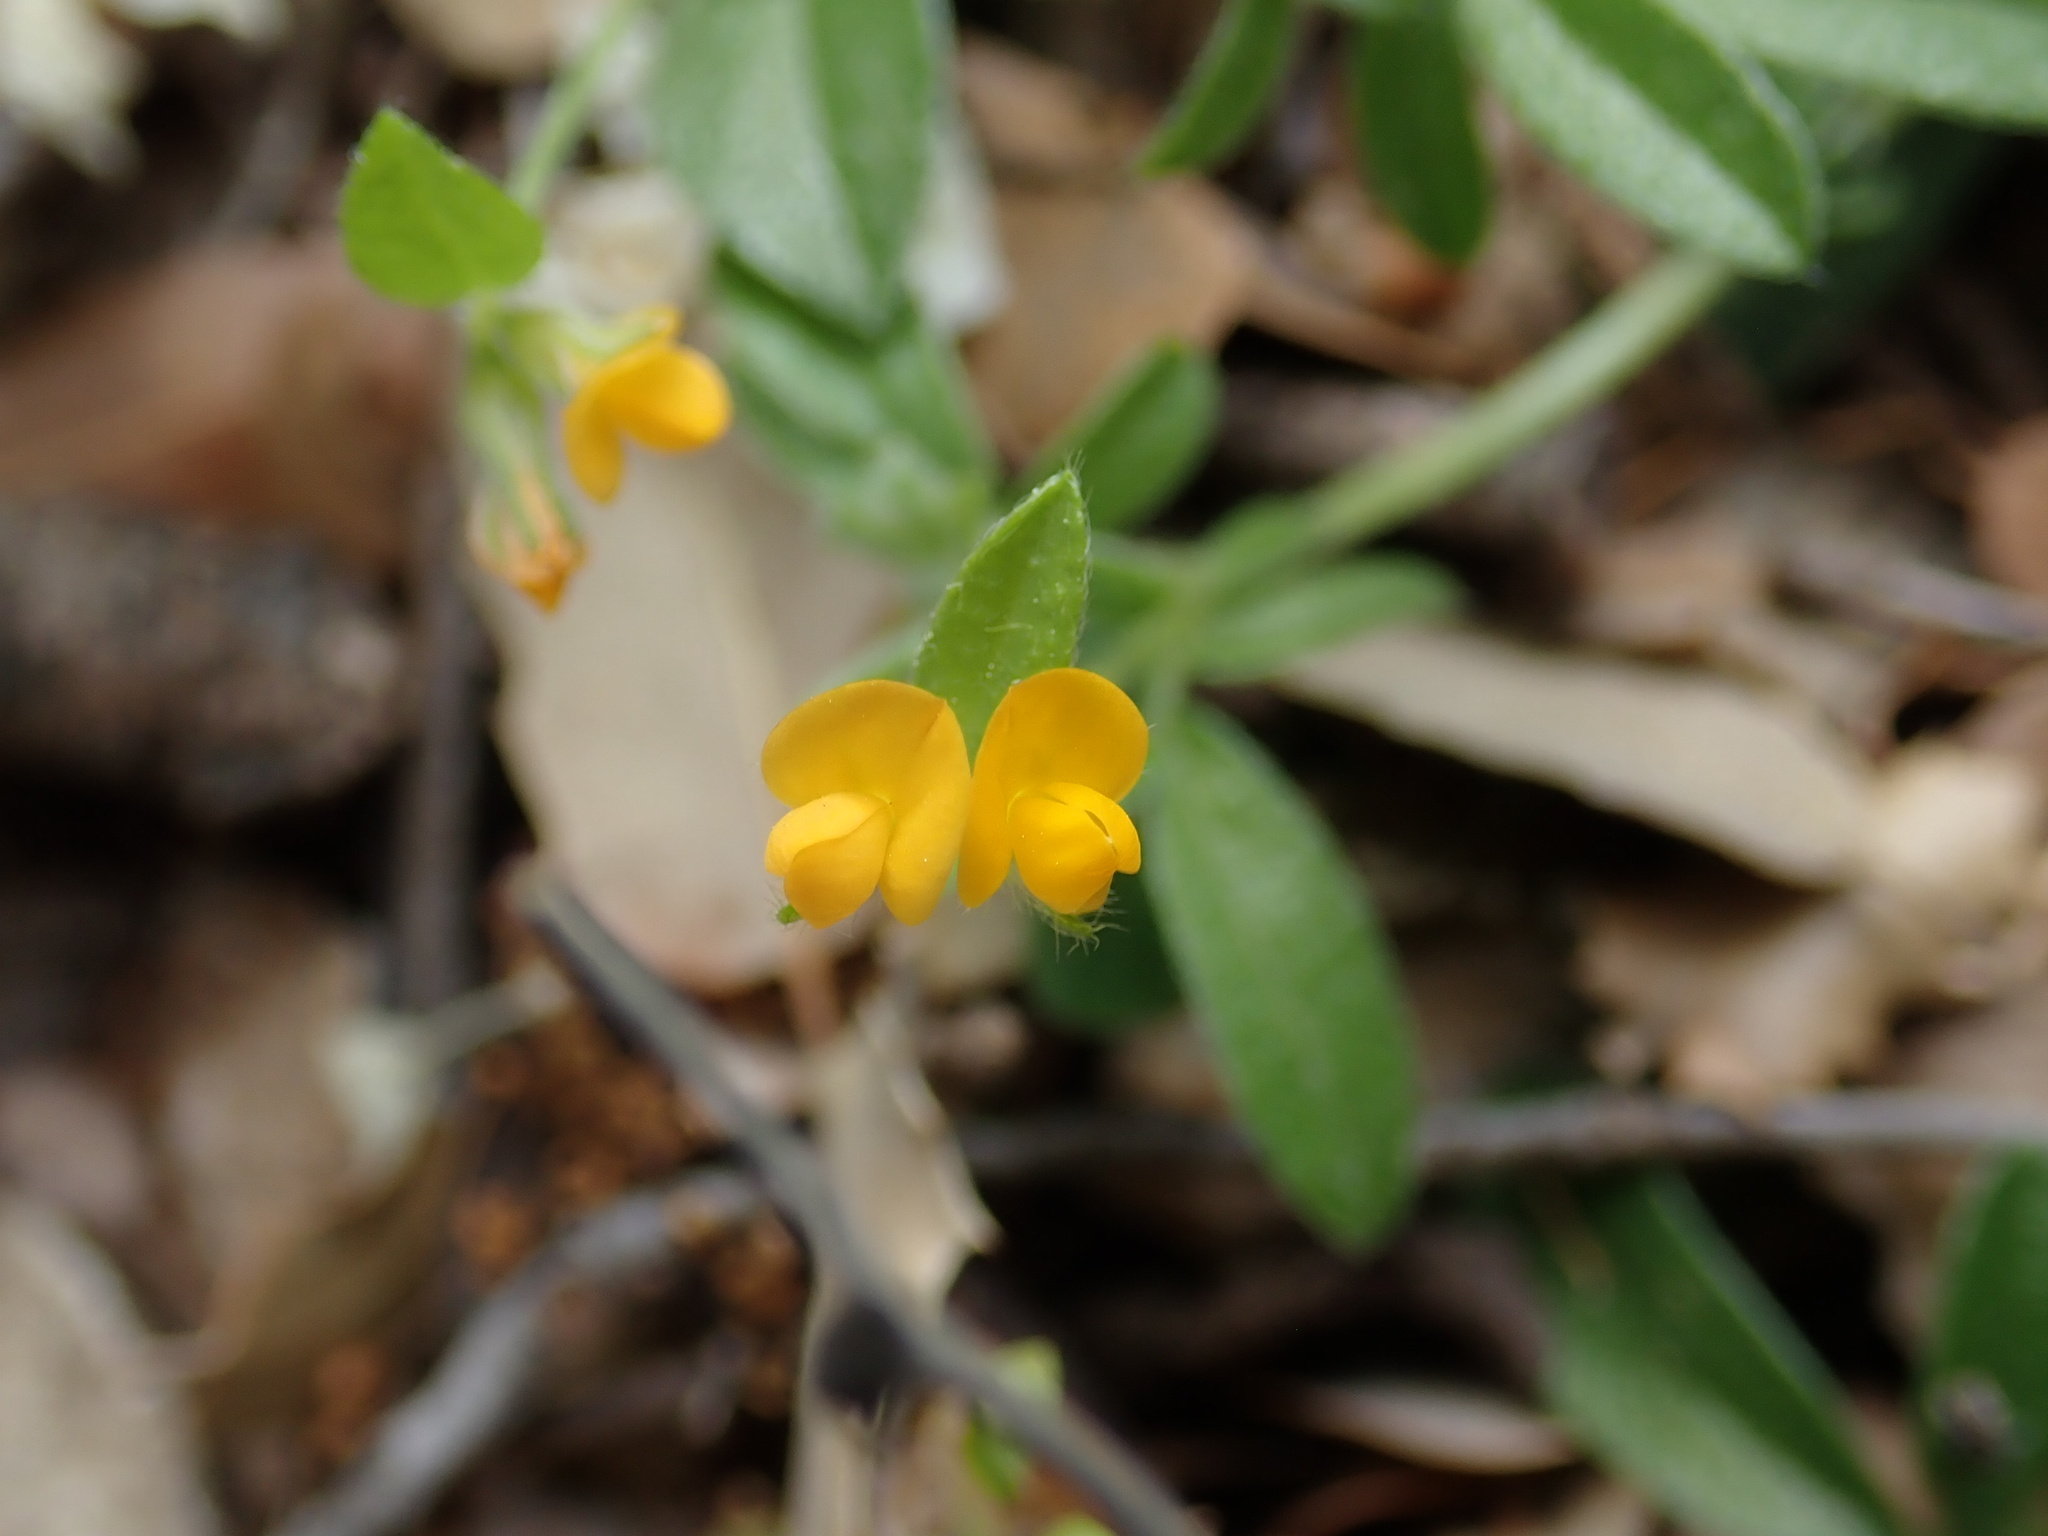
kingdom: Plantae
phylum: Tracheophyta
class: Magnoliopsida
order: Fabales
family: Fabaceae
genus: Anthyllis
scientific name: Anthyllis circinnata
